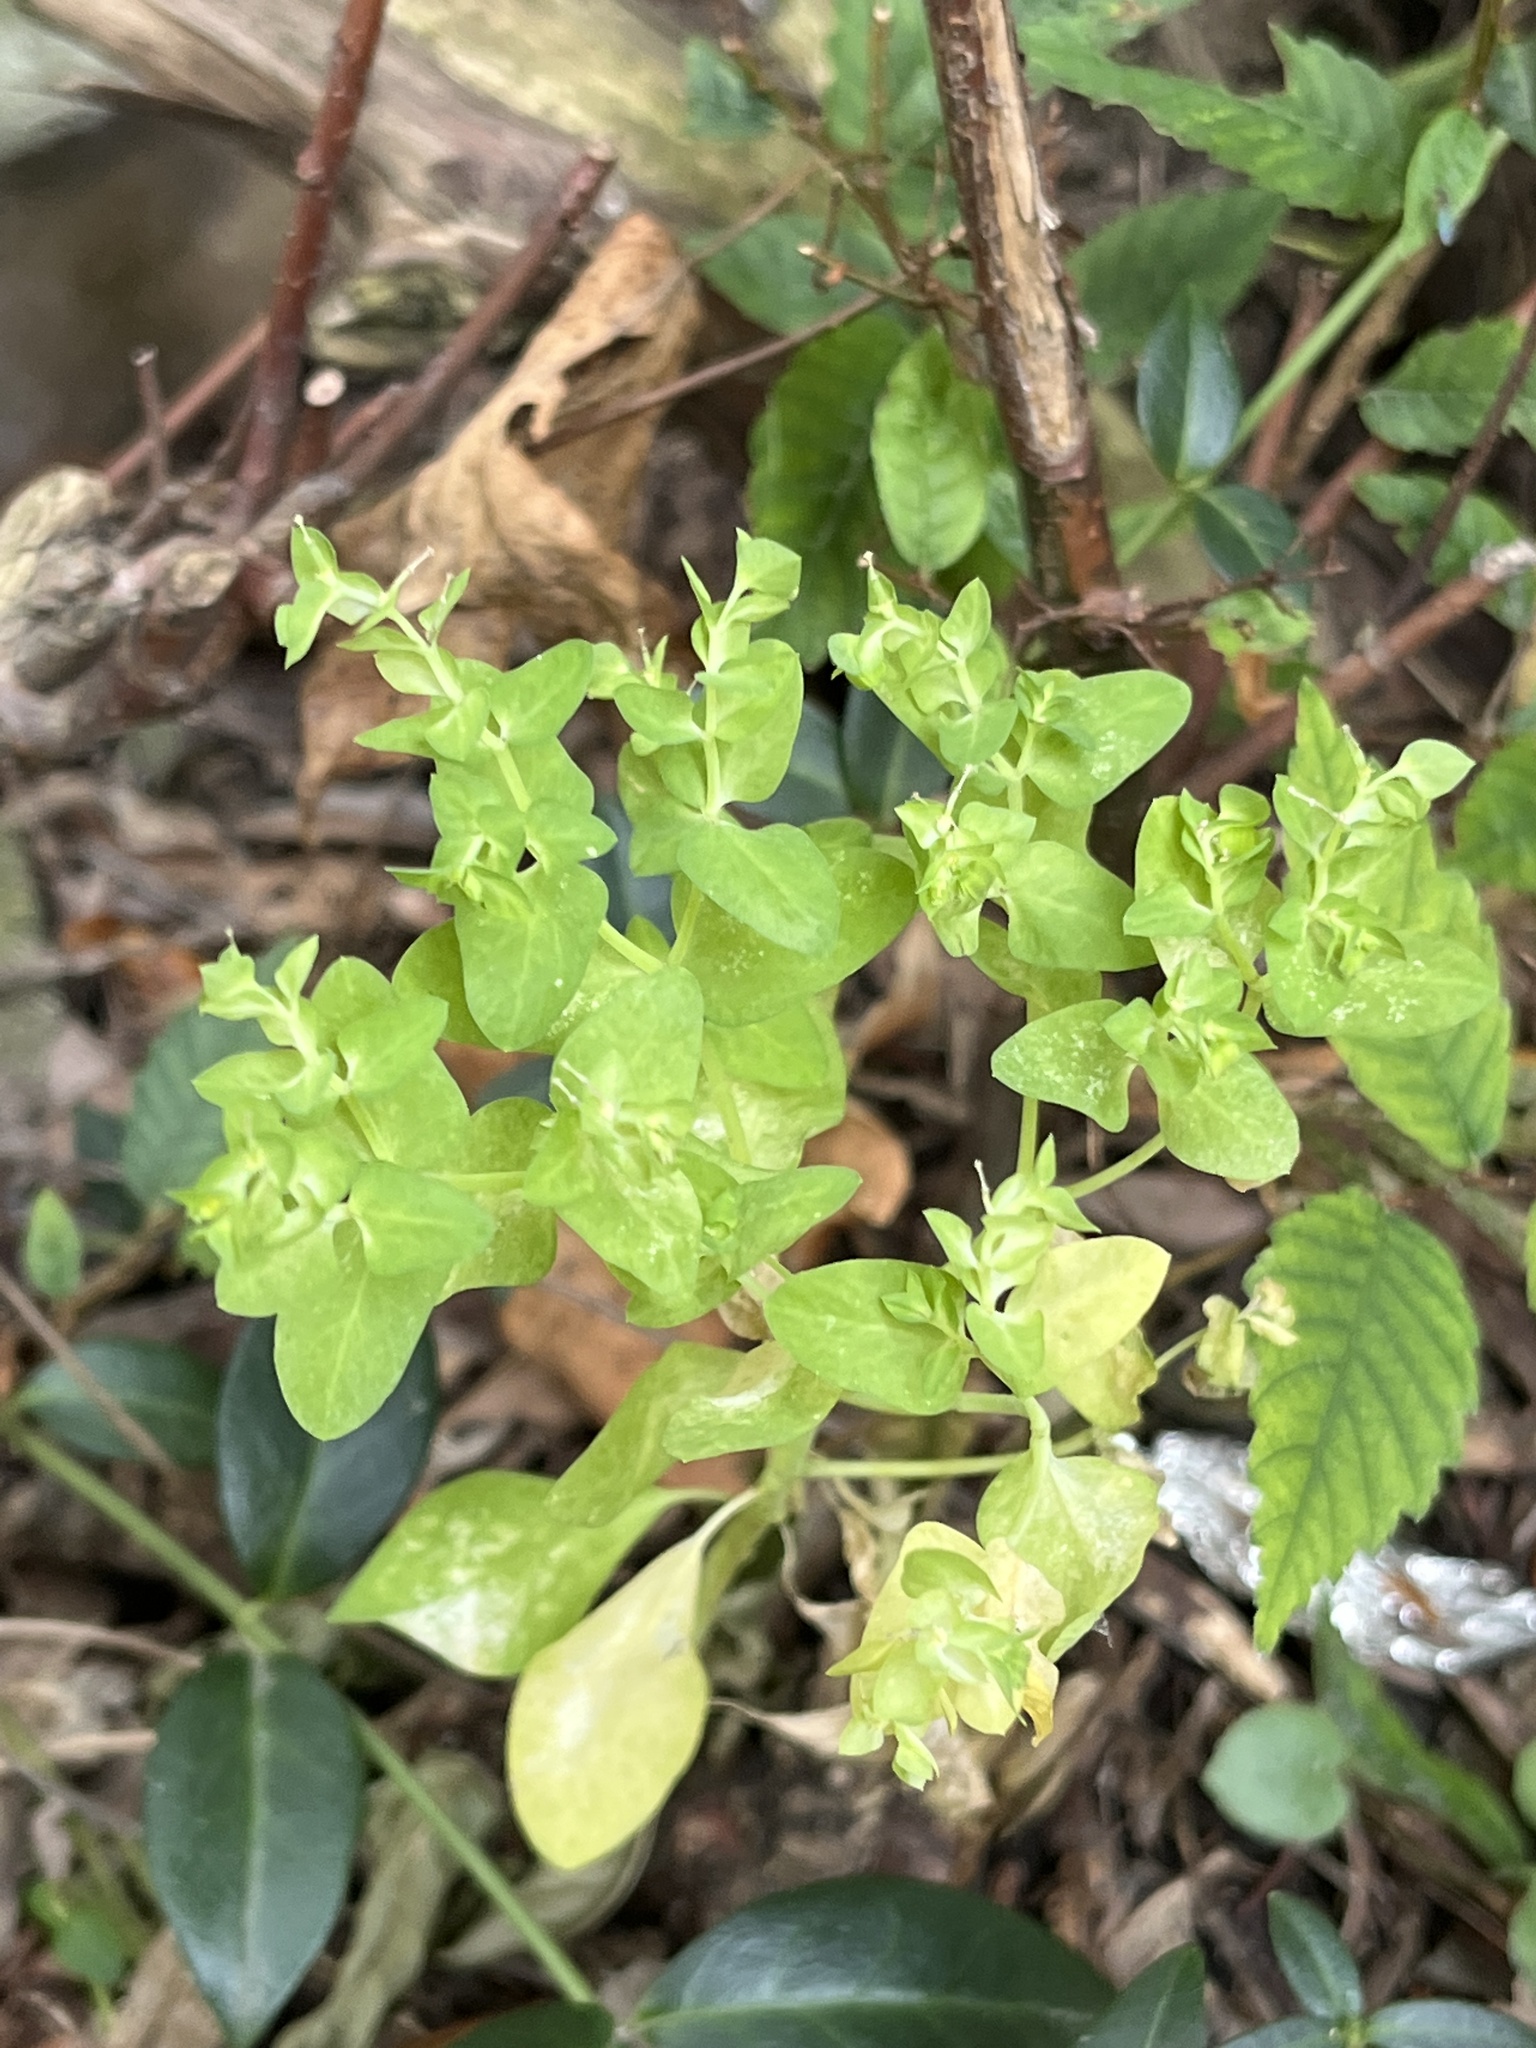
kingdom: Plantae
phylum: Tracheophyta
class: Magnoliopsida
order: Malpighiales
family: Euphorbiaceae
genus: Euphorbia
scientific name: Euphorbia peplus
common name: Petty spurge
